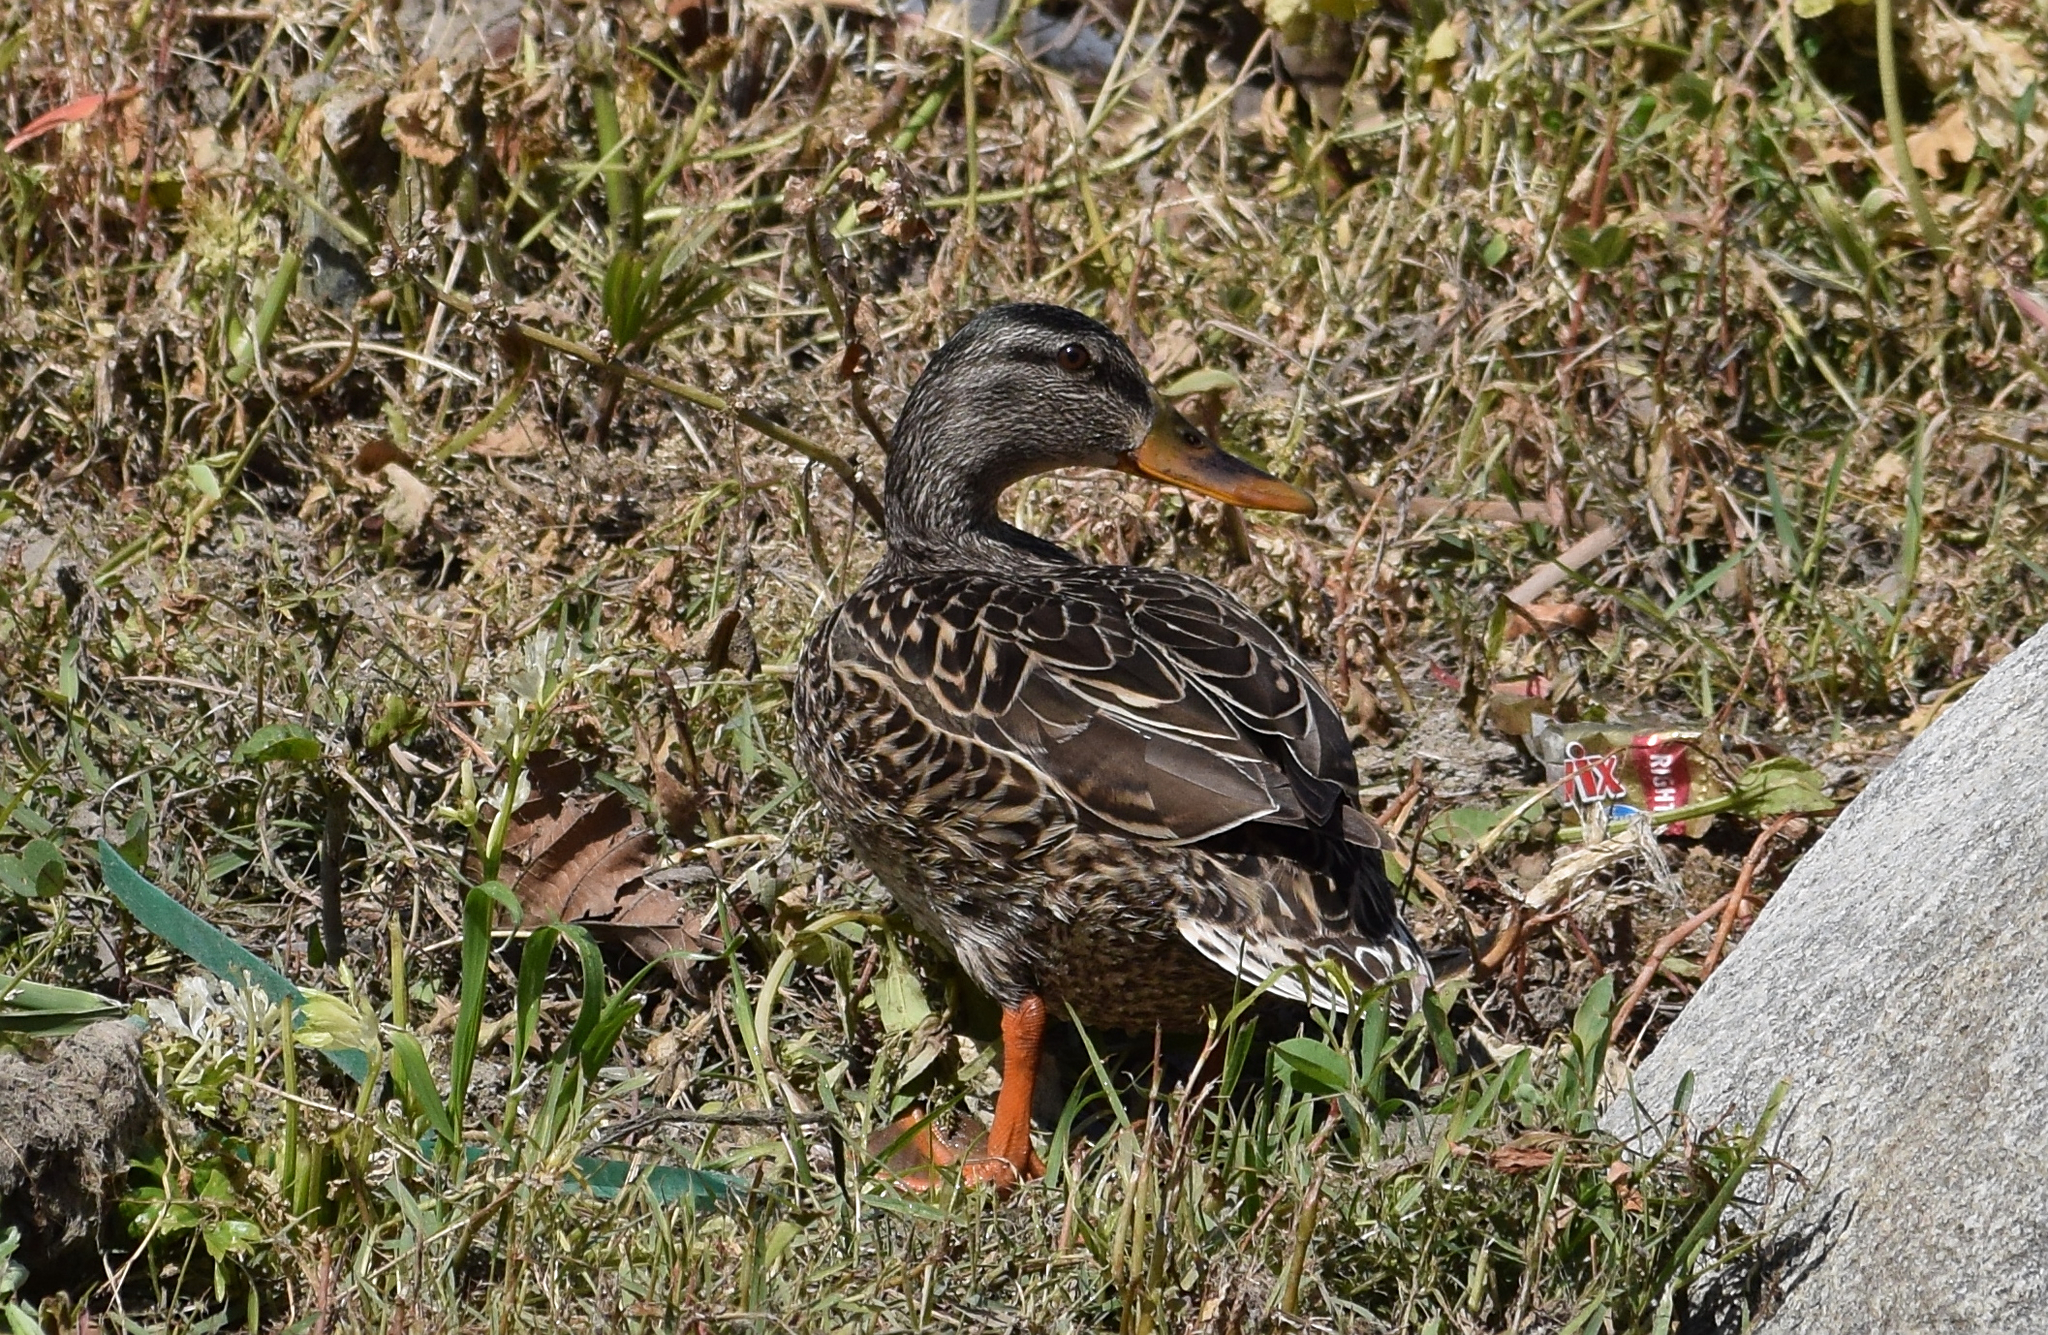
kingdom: Animalia
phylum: Chordata
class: Aves
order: Anseriformes
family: Anatidae
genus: Anas
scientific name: Anas platyrhynchos
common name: Mallard
